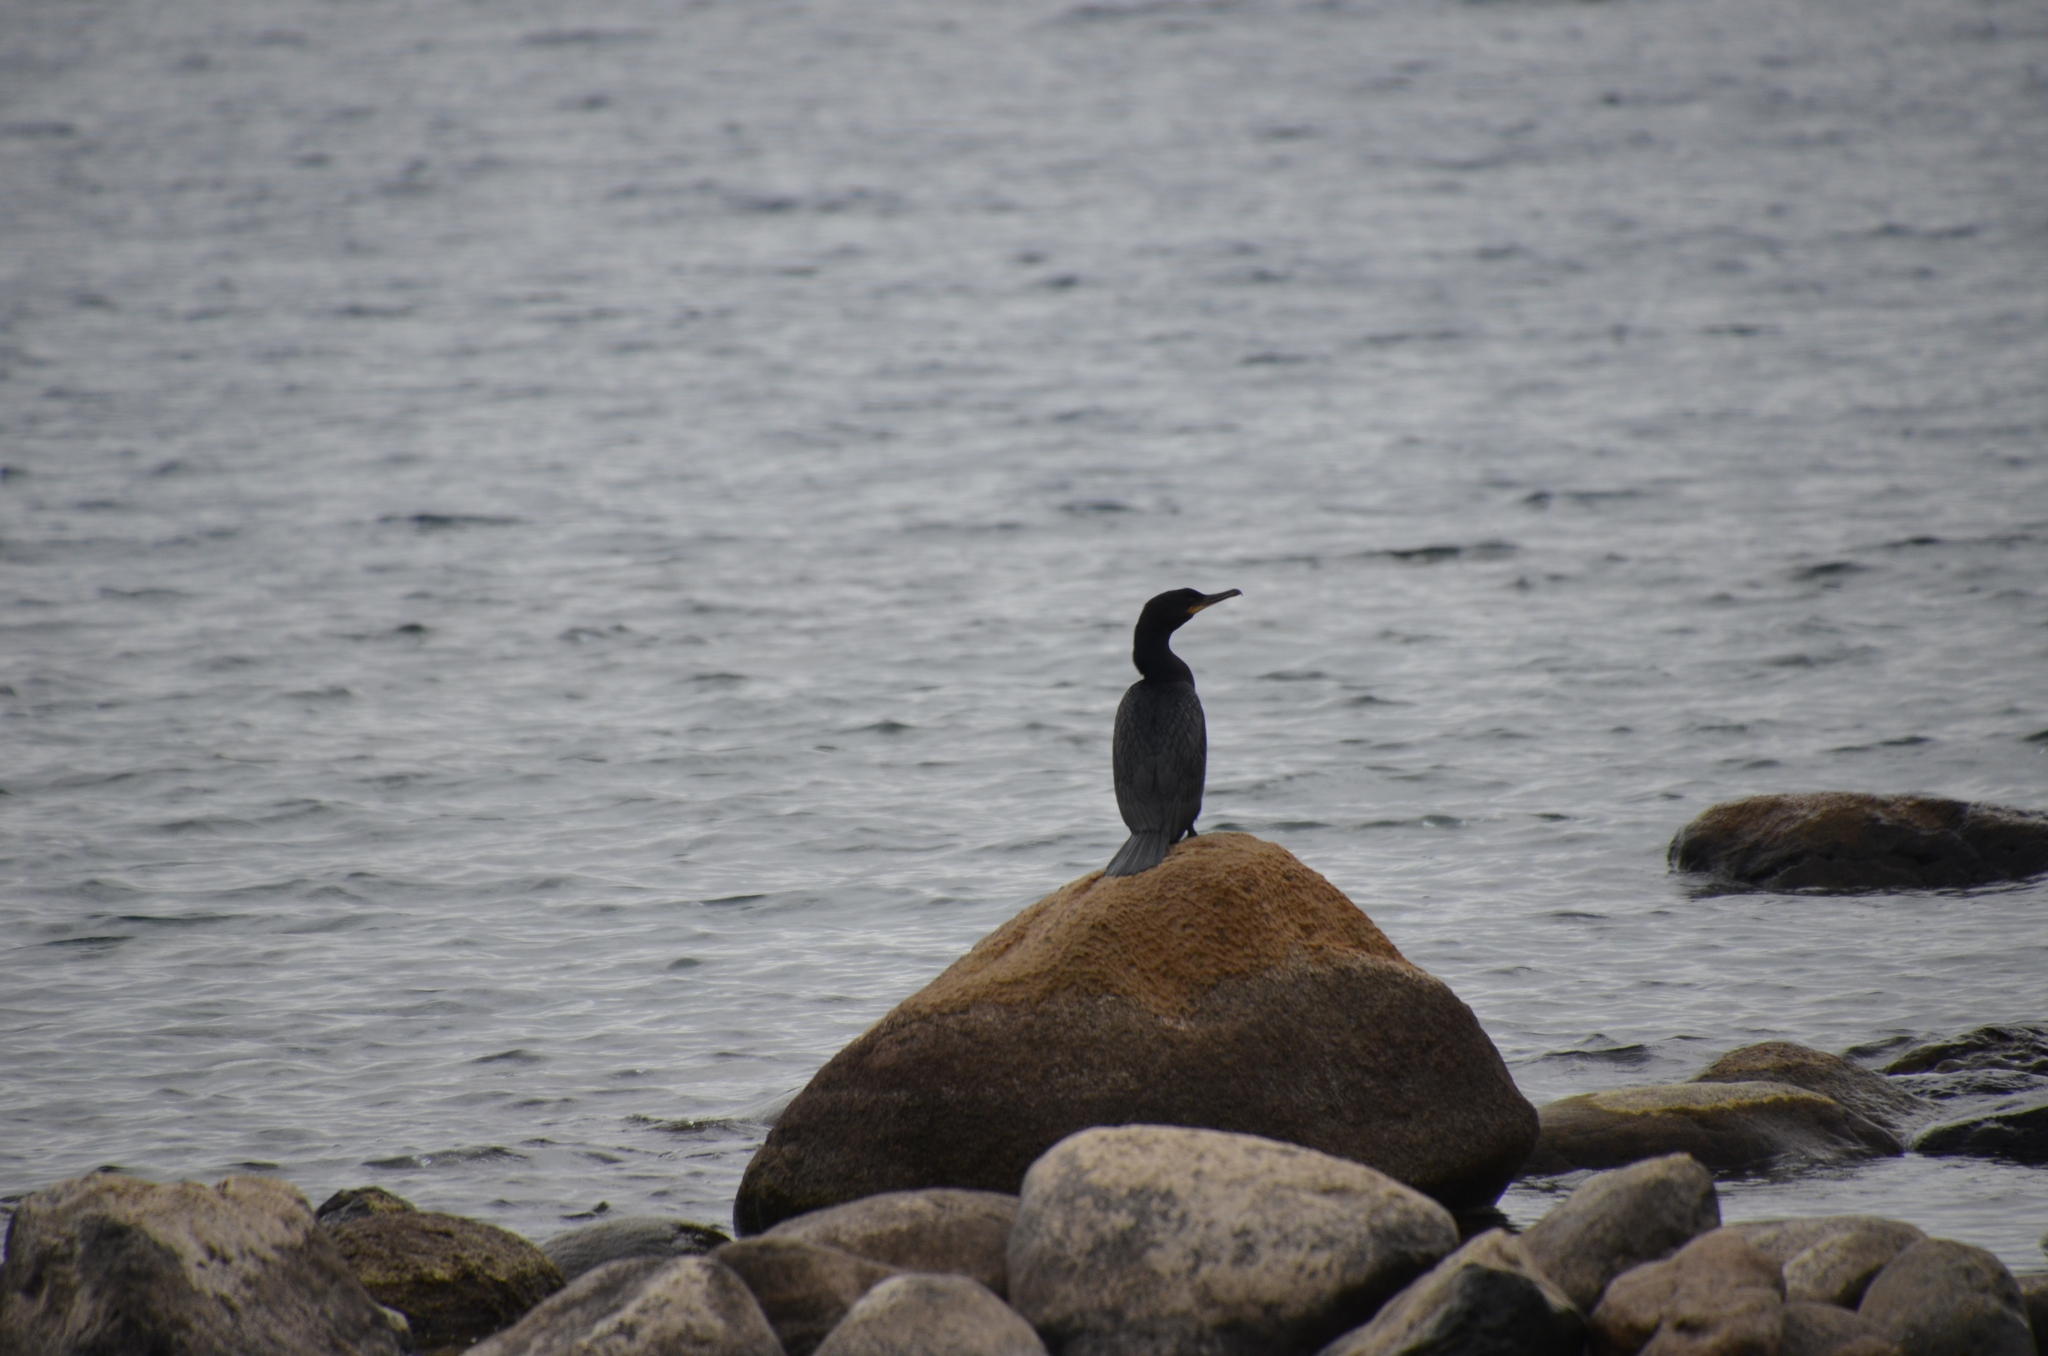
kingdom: Animalia
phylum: Chordata
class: Aves
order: Suliformes
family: Phalacrocoracidae
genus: Phalacrocorax
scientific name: Phalacrocorax brasilianus
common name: Neotropic cormorant
